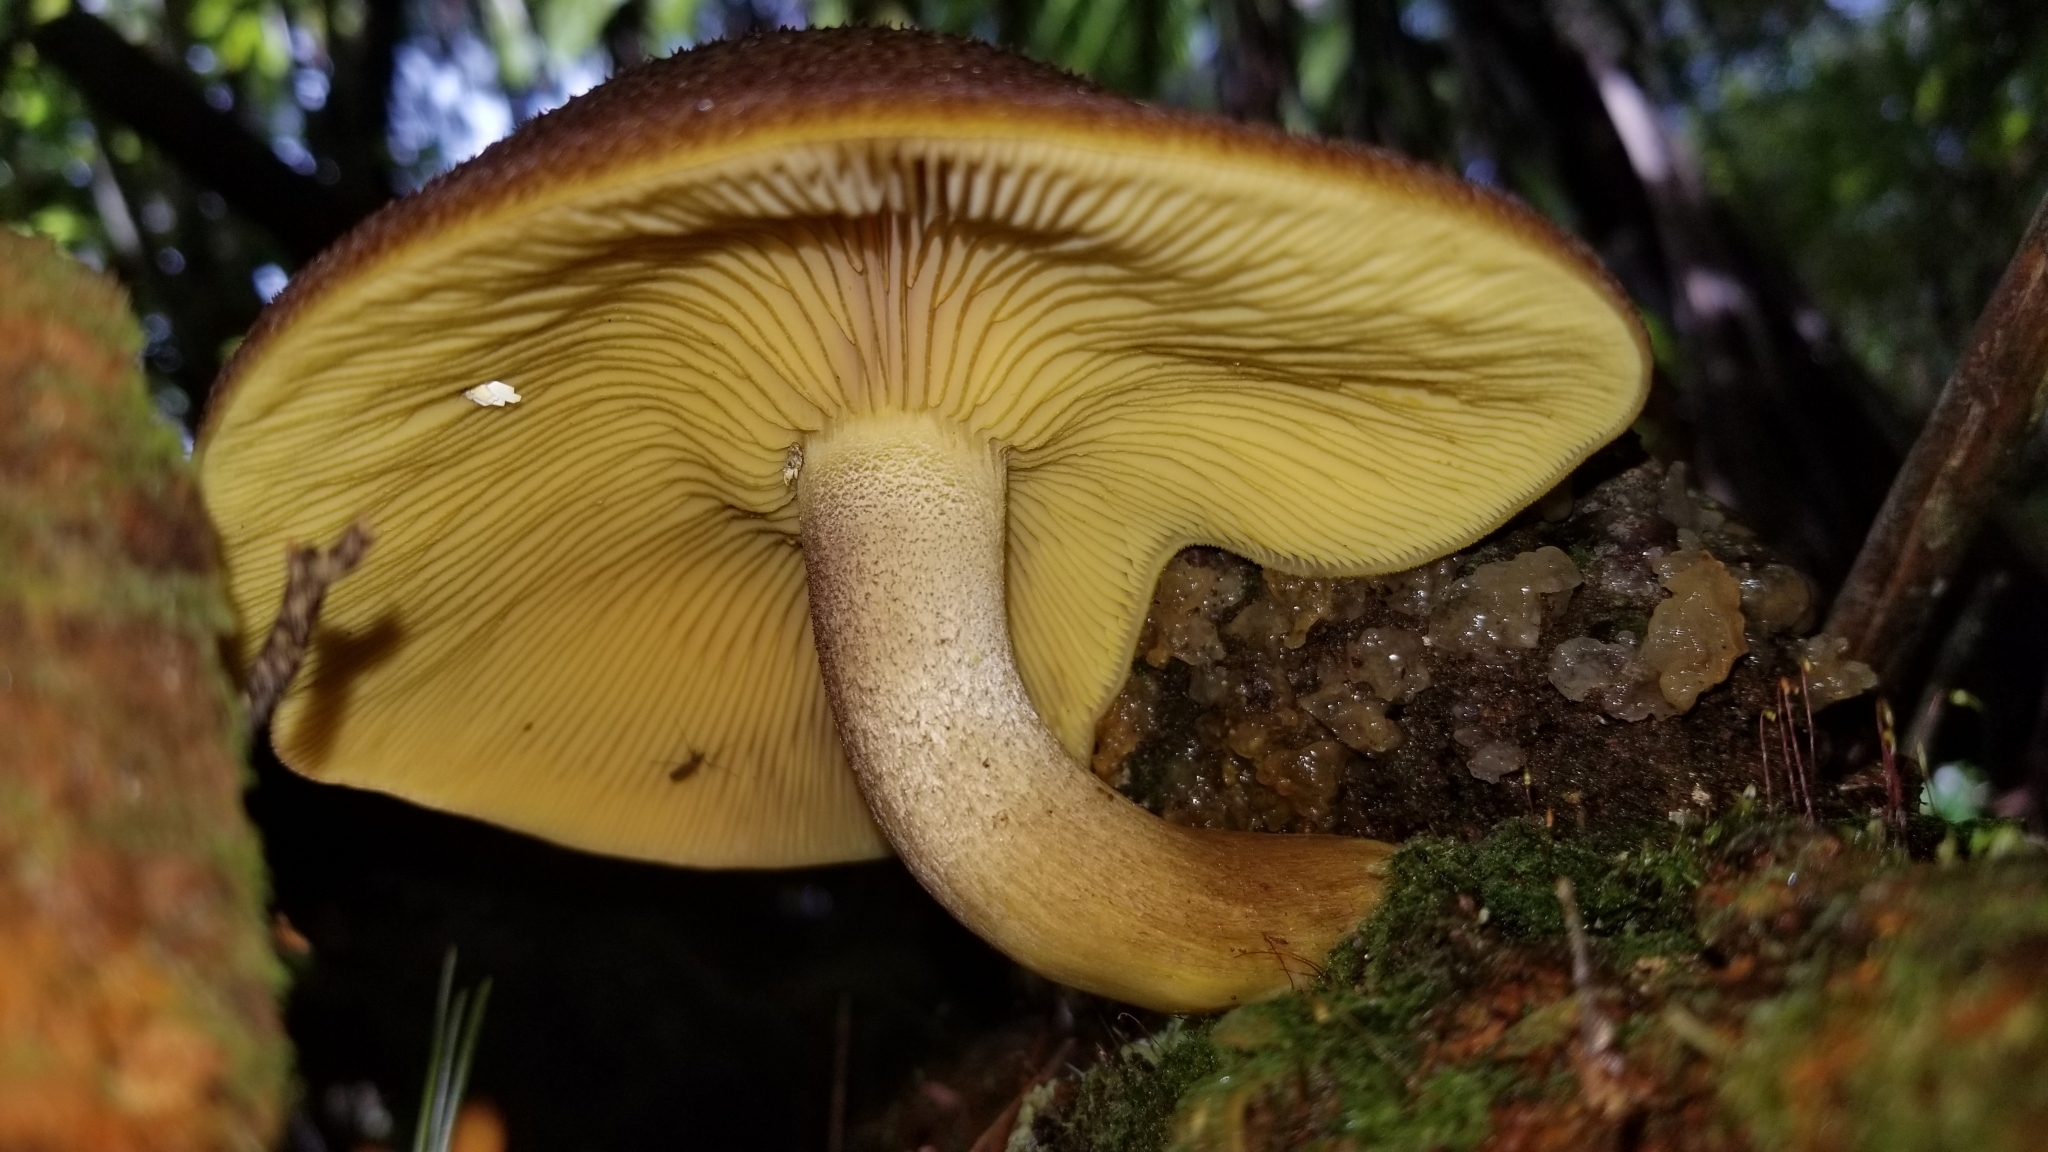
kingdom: Fungi
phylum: Basidiomycota
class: Agaricomycetes
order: Agaricales
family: Tricholomataceae
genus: Tricholomopsis
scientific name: Tricholomopsis ornaticeps
